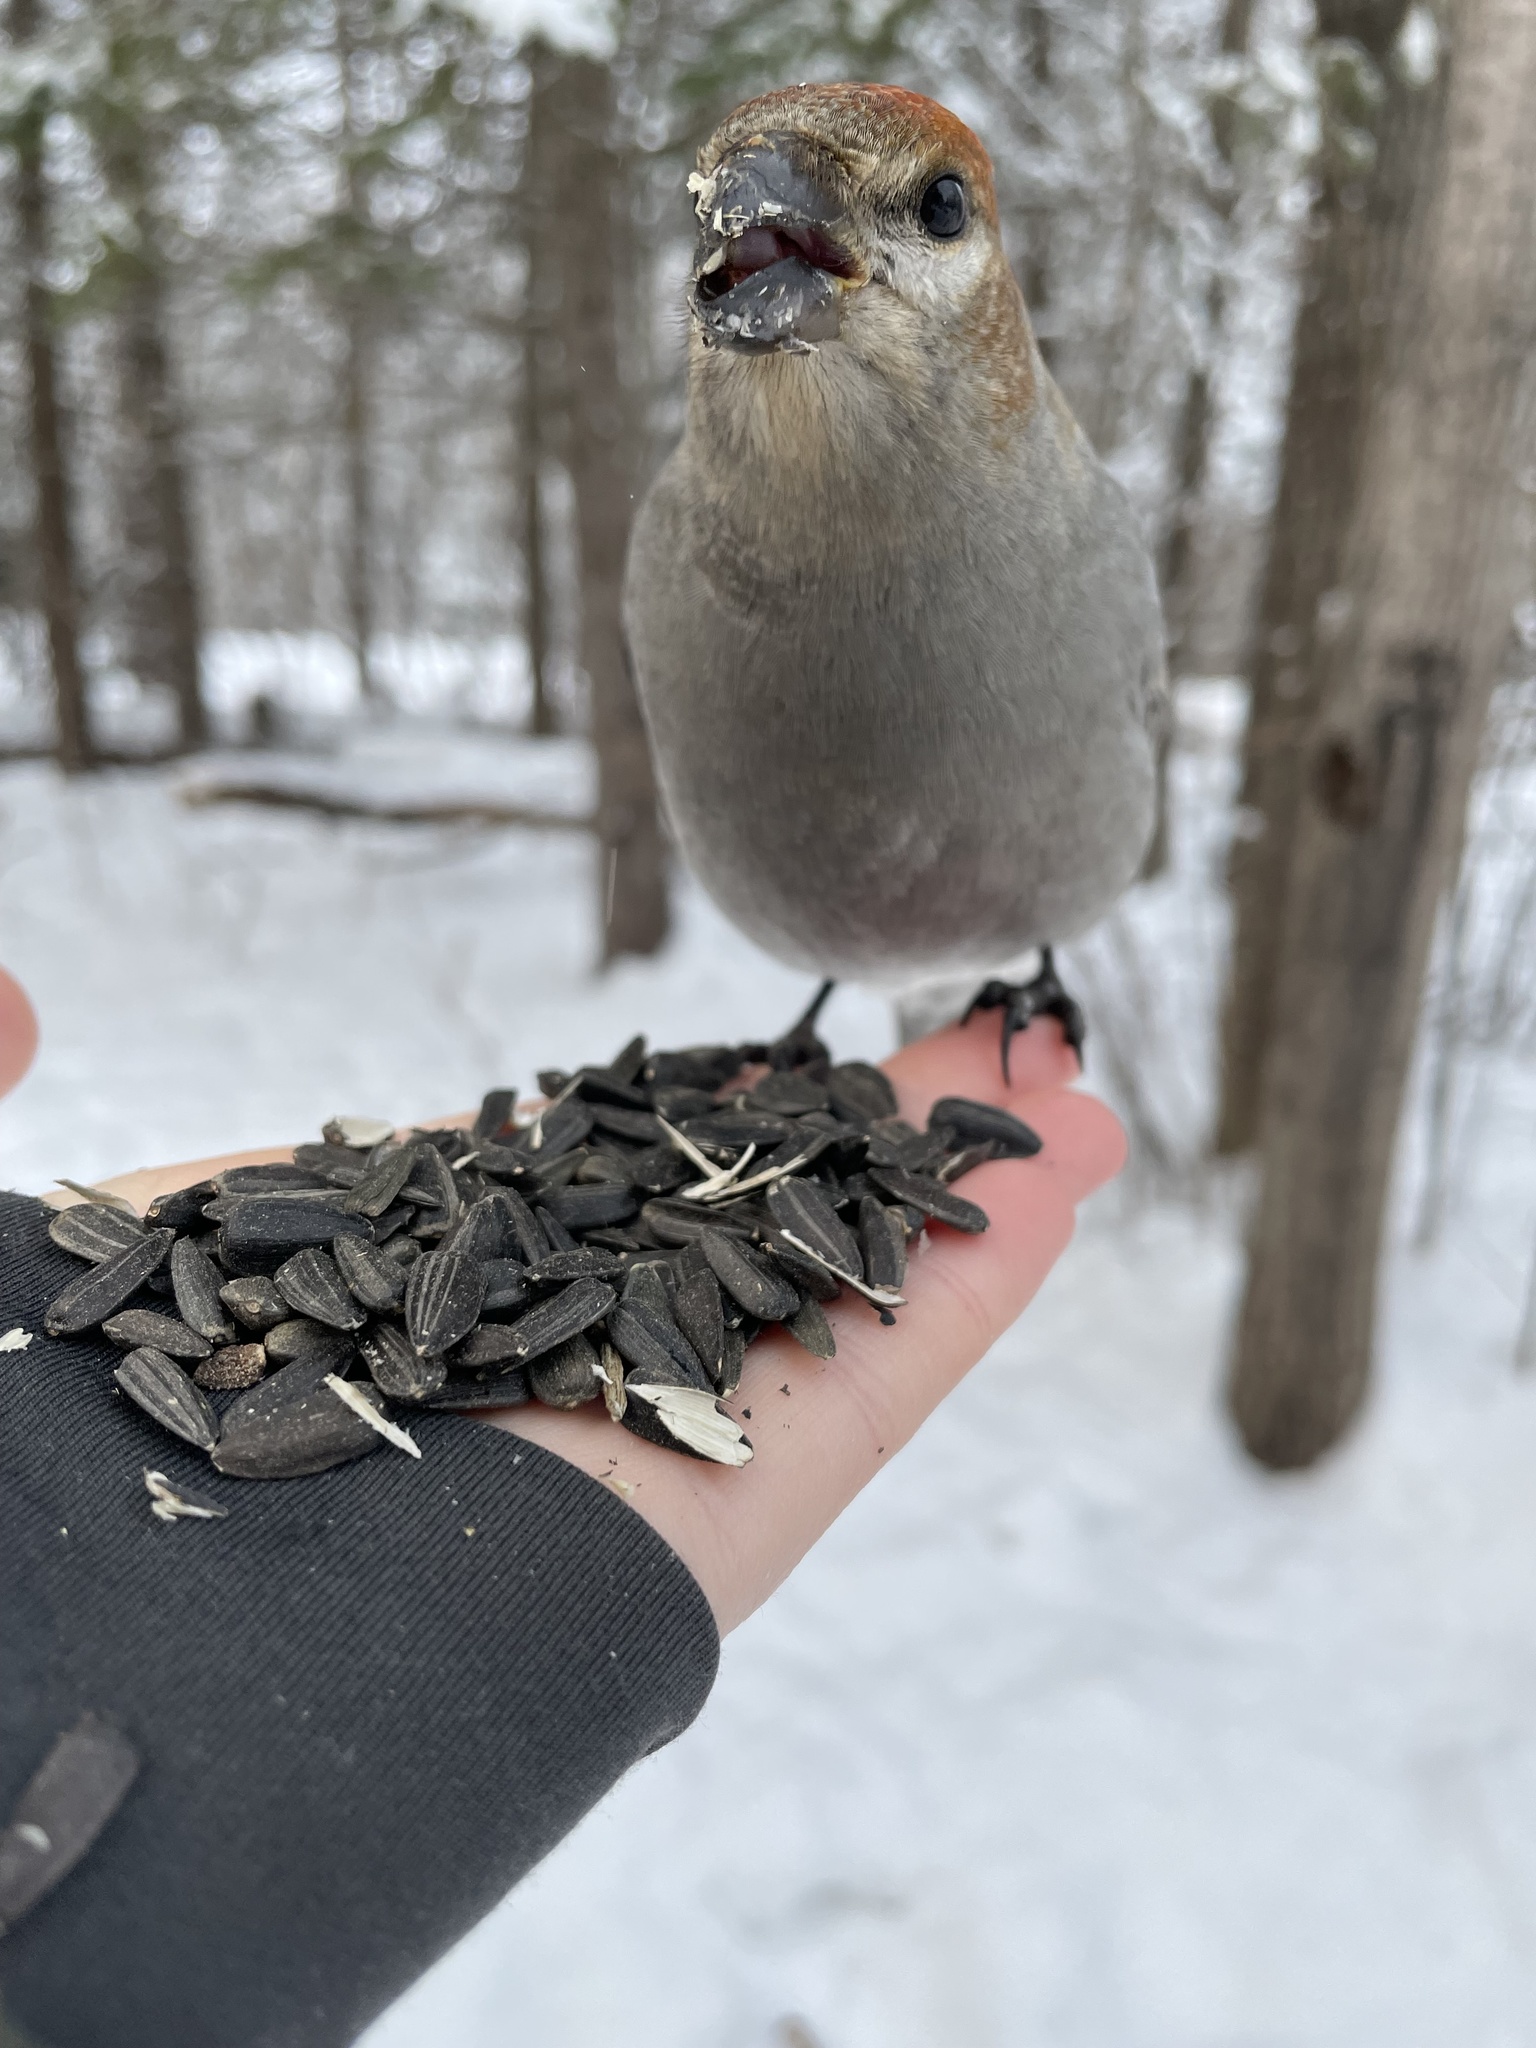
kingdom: Animalia
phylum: Chordata
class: Aves
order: Passeriformes
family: Fringillidae
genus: Pinicola
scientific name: Pinicola enucleator
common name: Pine grosbeak
